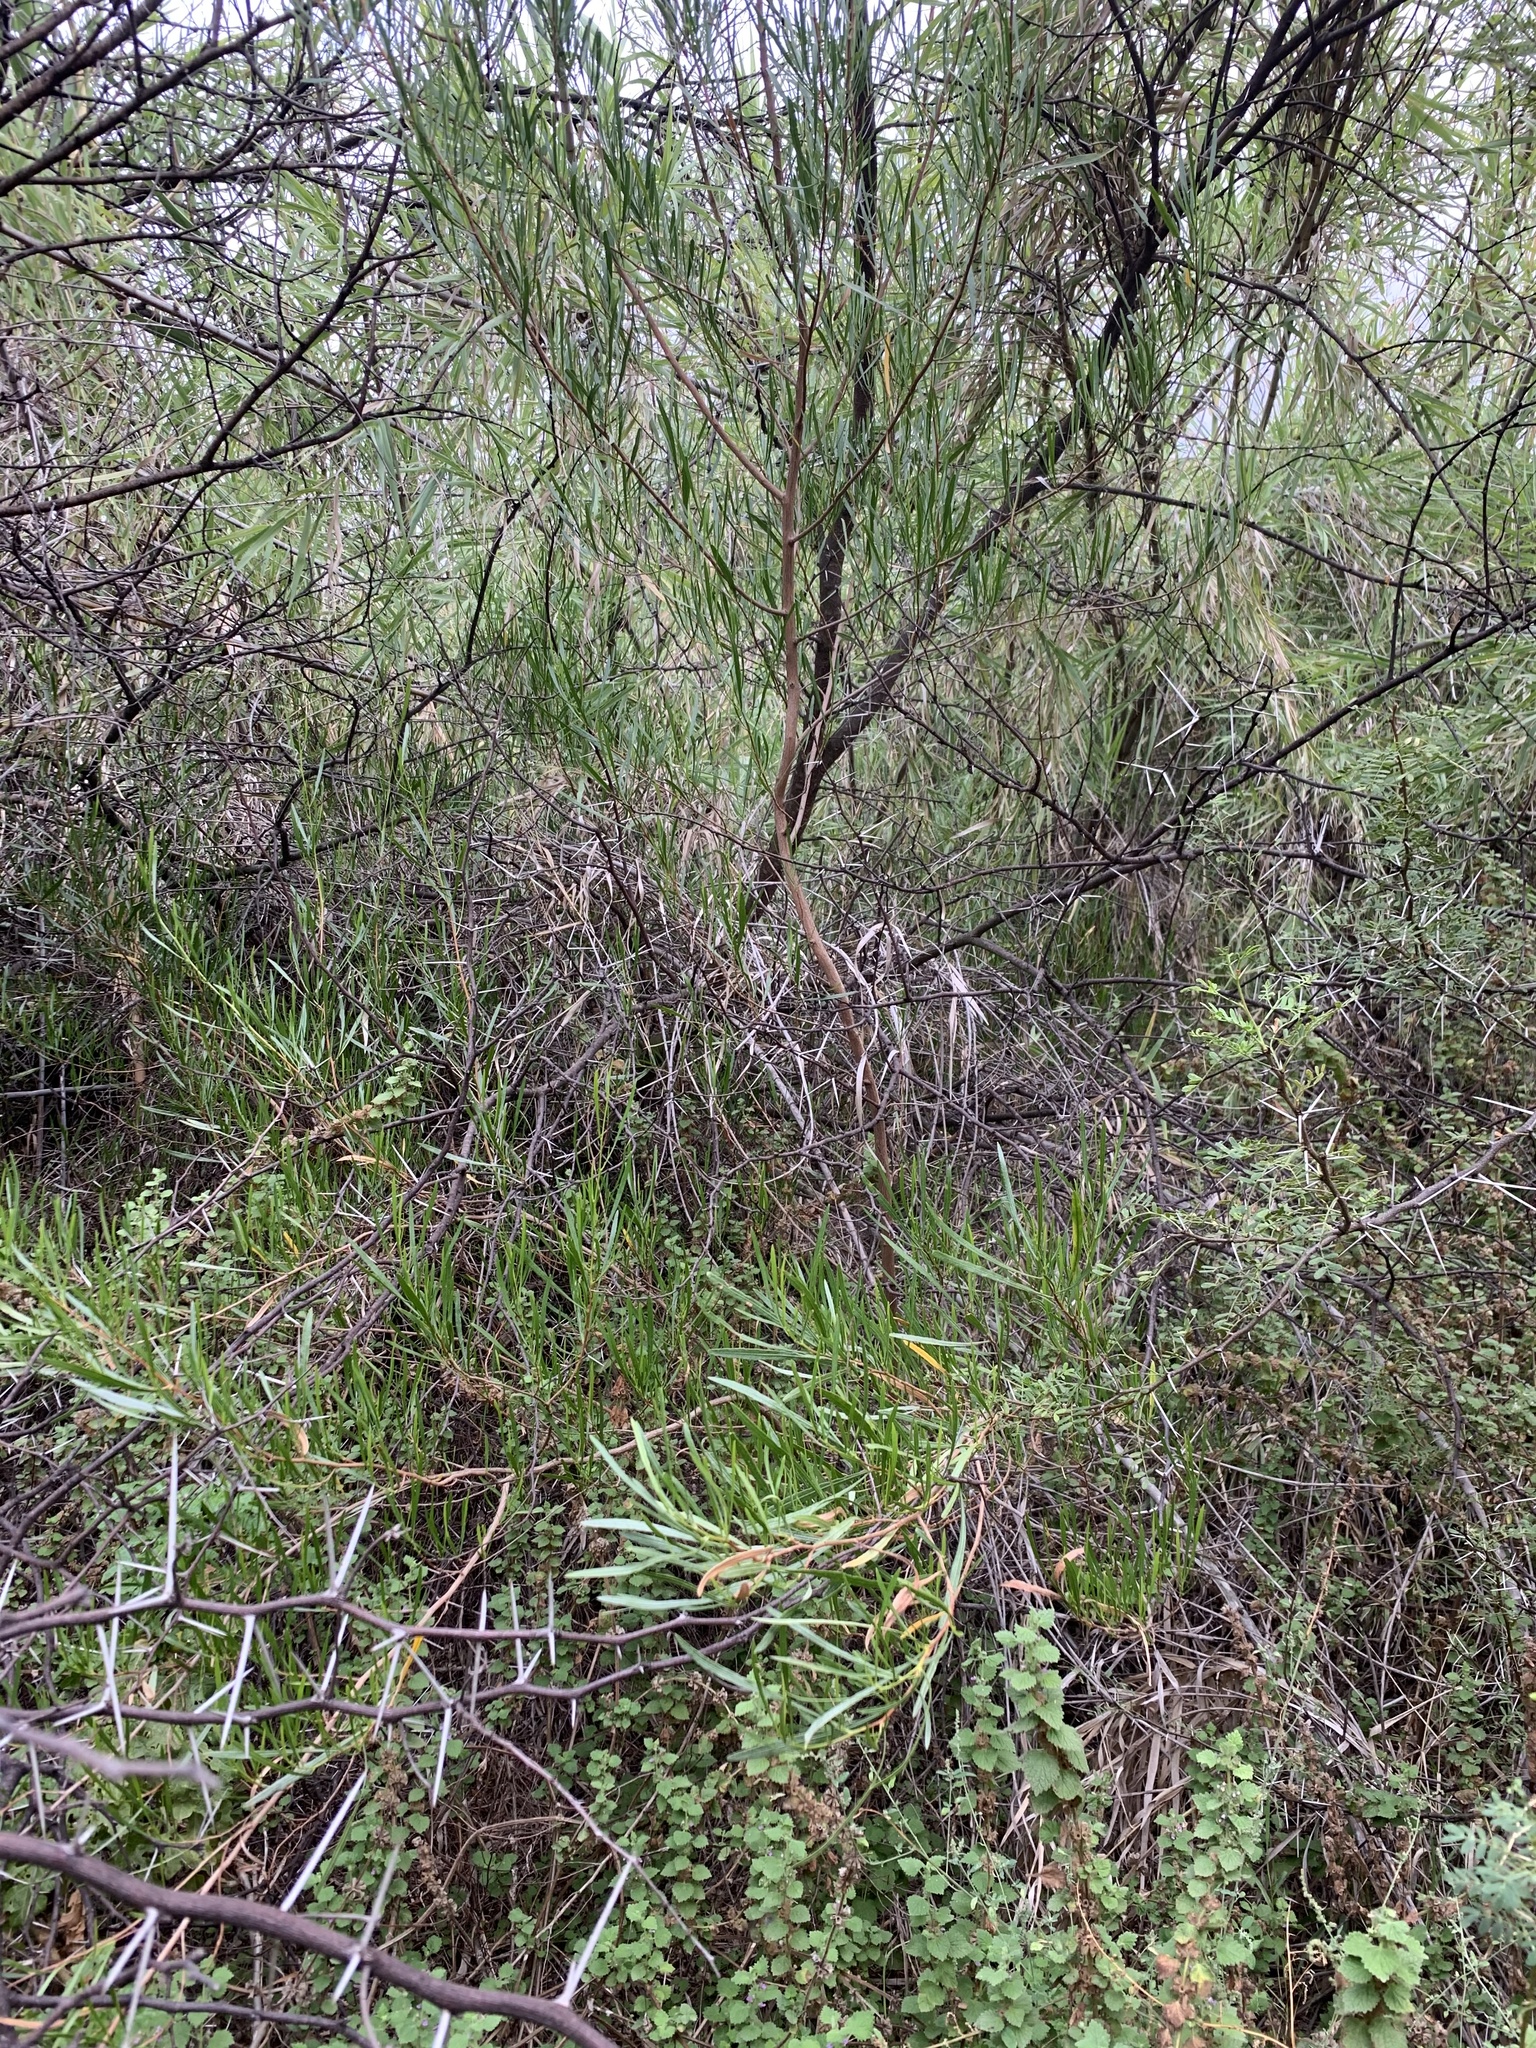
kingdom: Plantae
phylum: Tracheophyta
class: Magnoliopsida
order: Sapindales
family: Sapindaceae
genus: Dodonaea
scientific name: Dodonaea viscosa
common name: Hopbush
